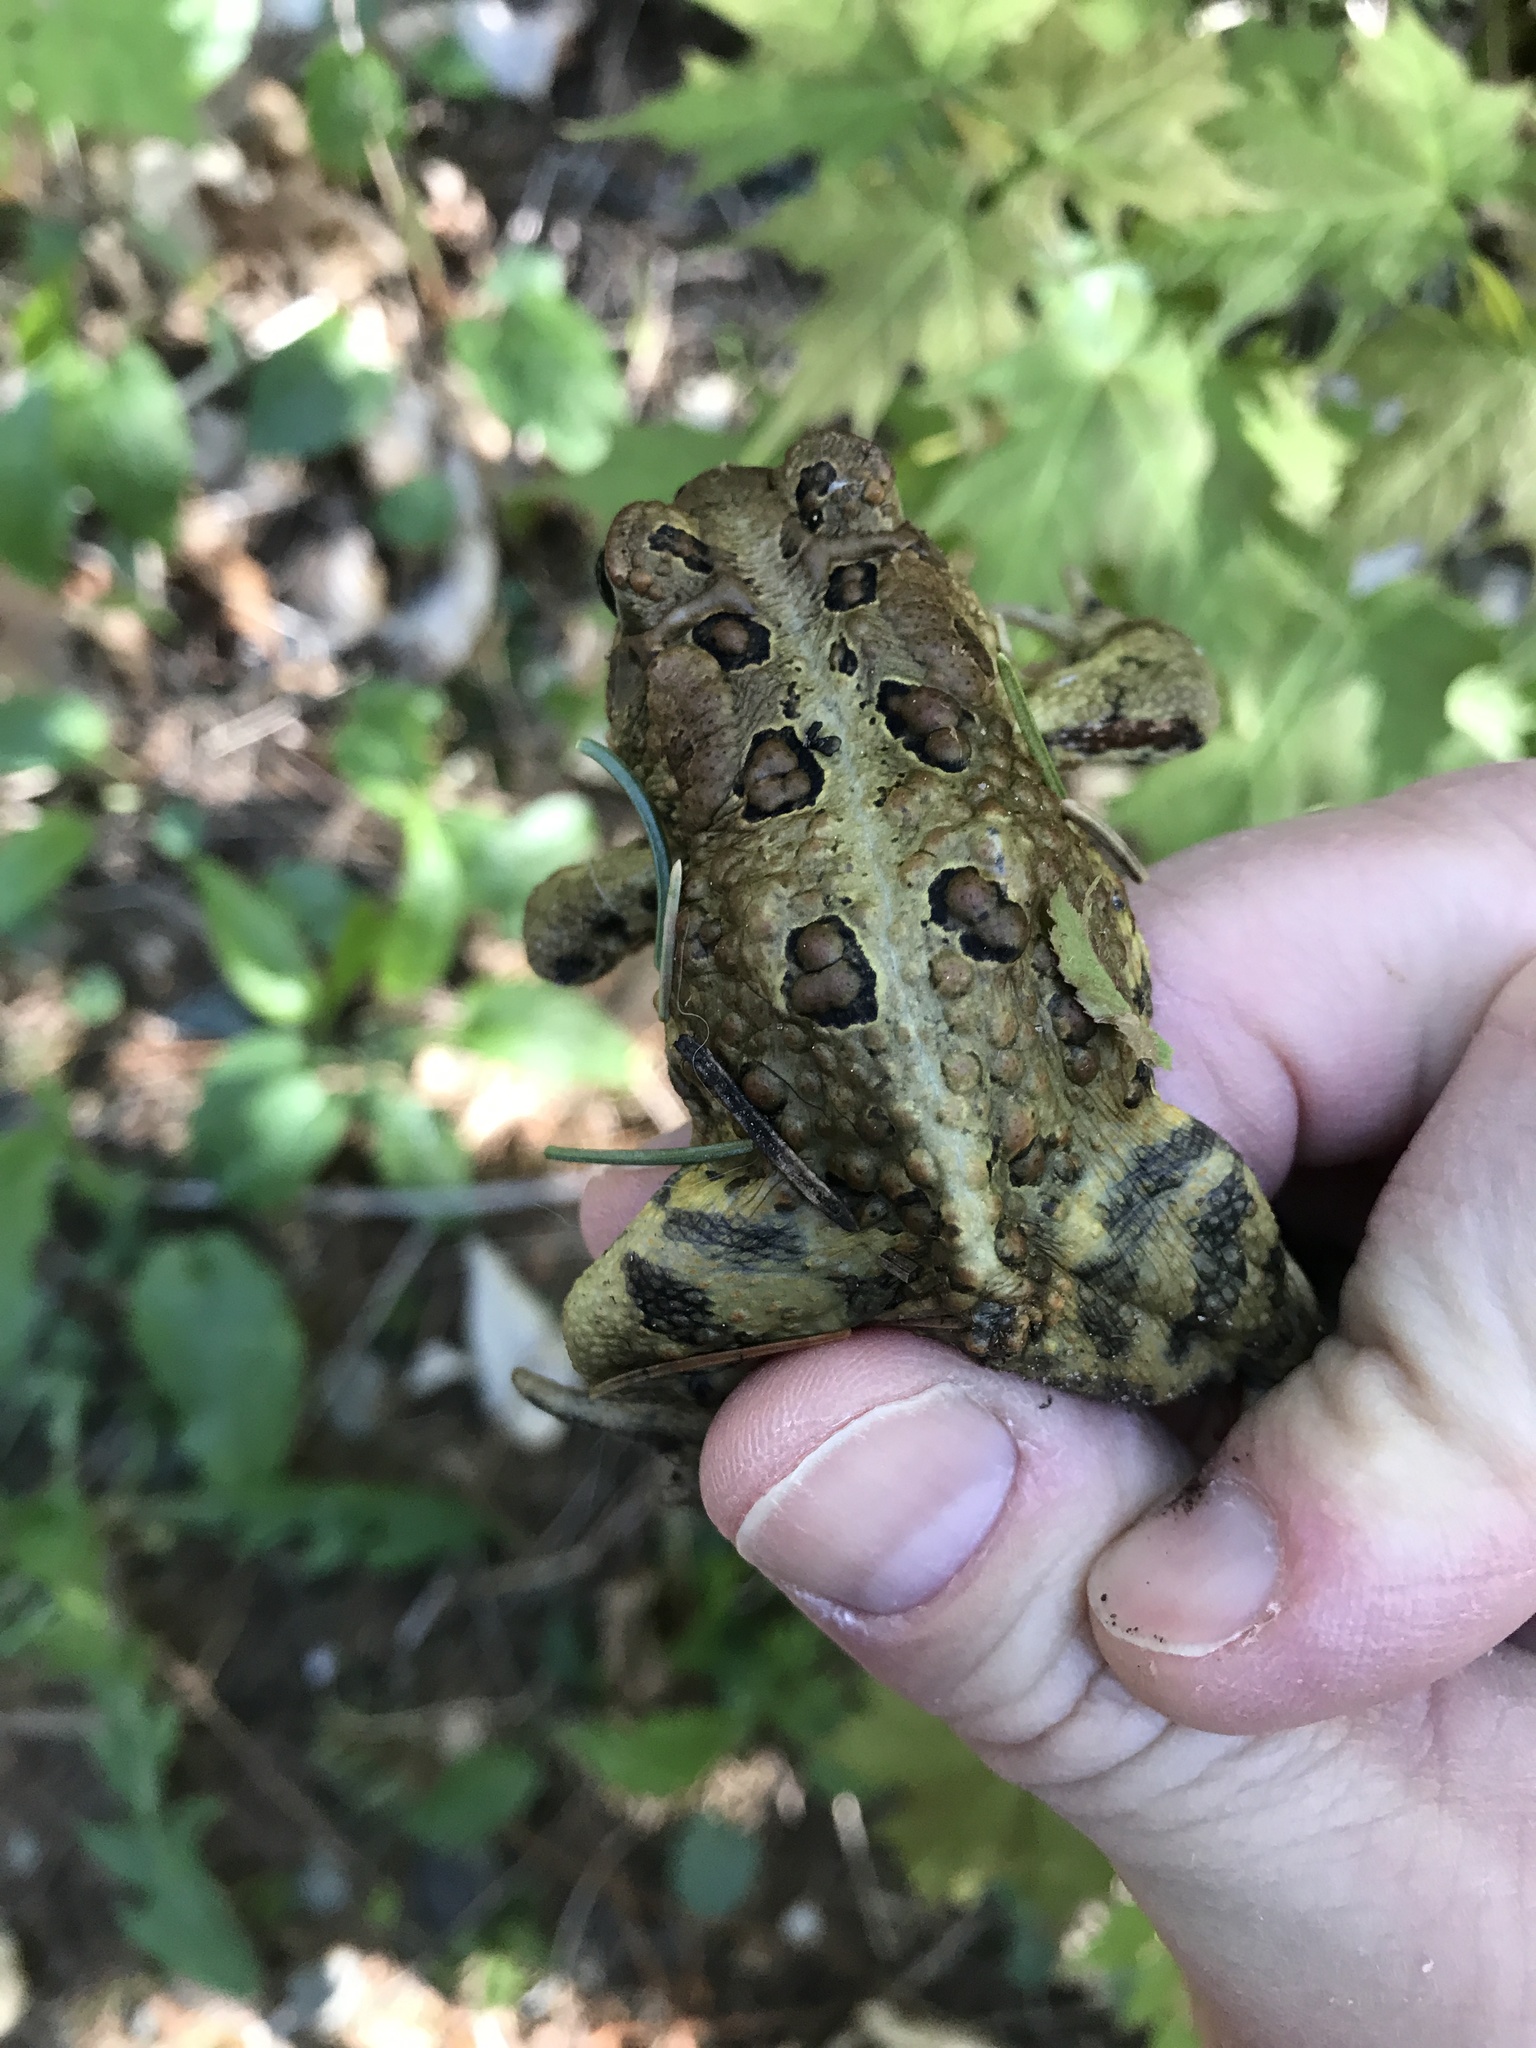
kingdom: Animalia
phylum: Chordata
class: Amphibia
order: Anura
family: Bufonidae
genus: Anaxyrus
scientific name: Anaxyrus americanus
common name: American toad
